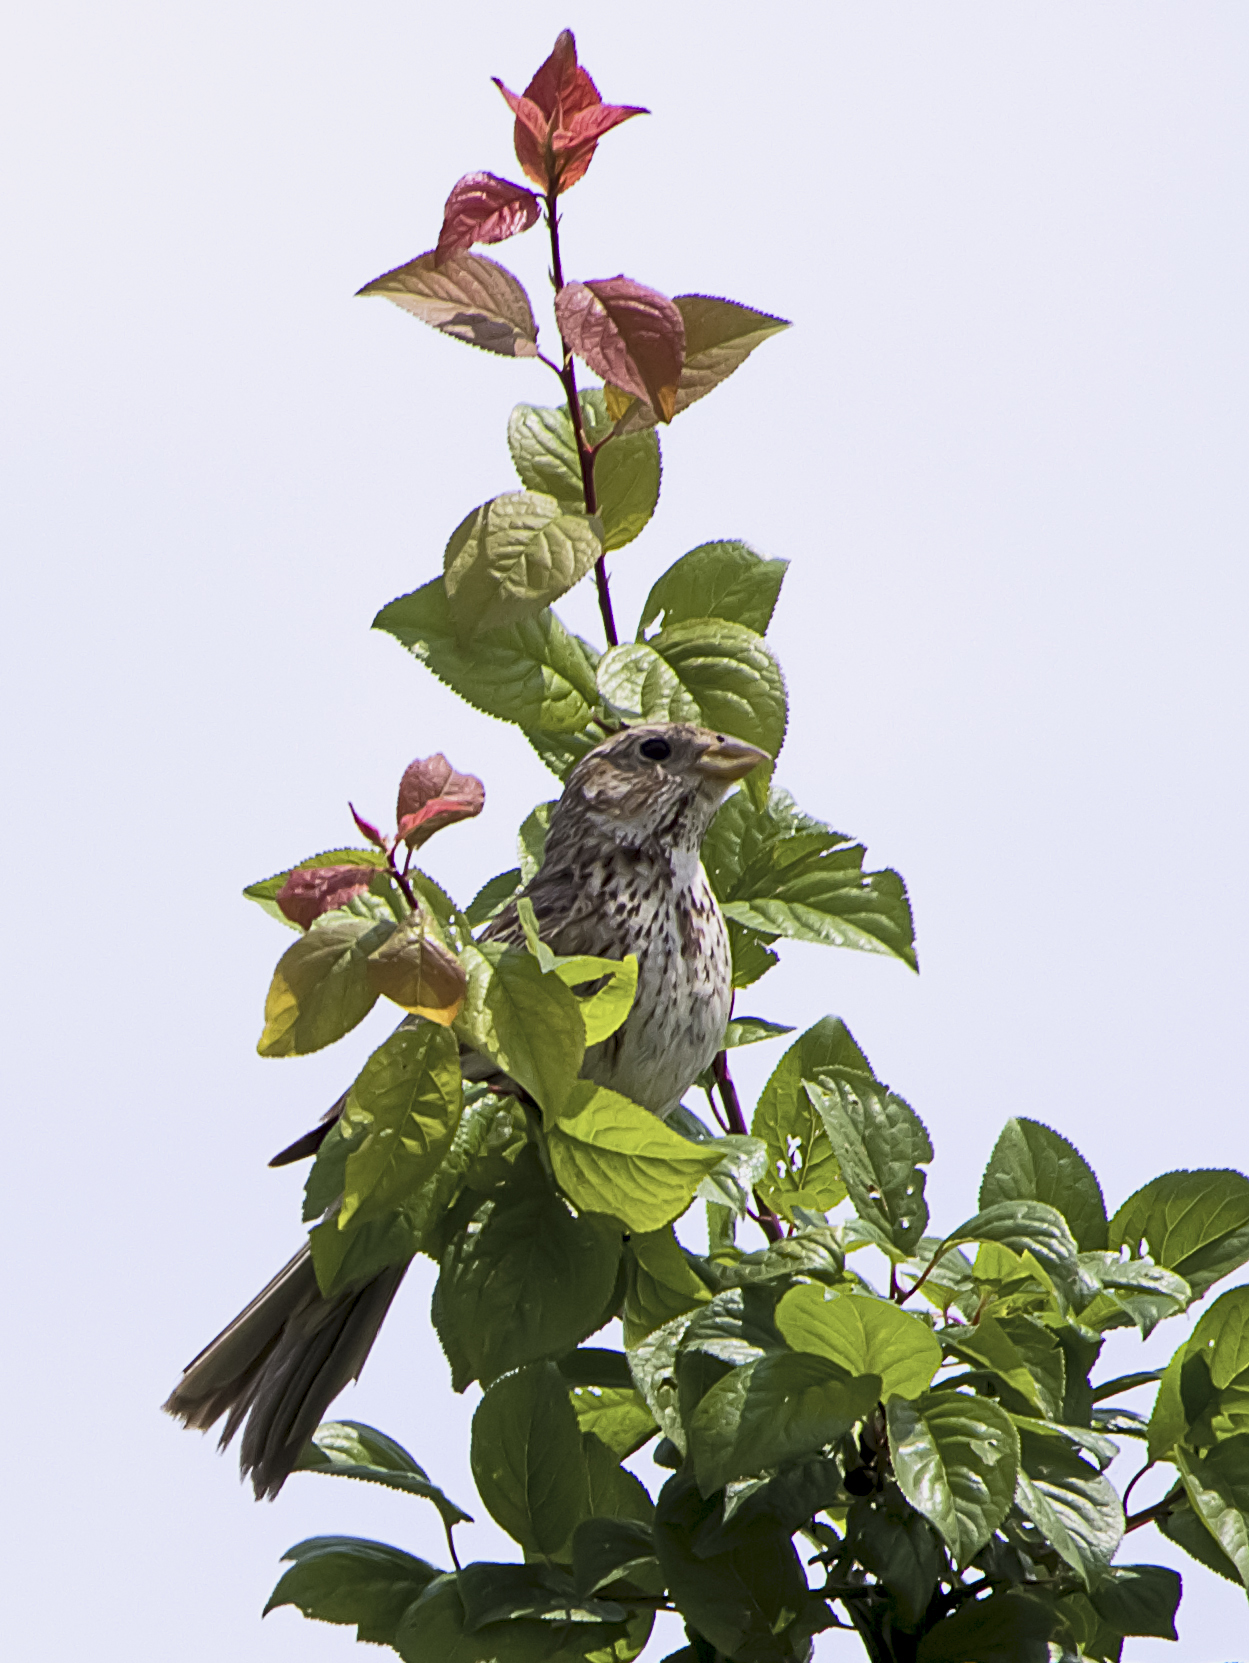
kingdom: Animalia
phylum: Chordata
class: Aves
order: Passeriformes
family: Emberizidae
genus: Emberiza
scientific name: Emberiza calandra
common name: Corn bunting
